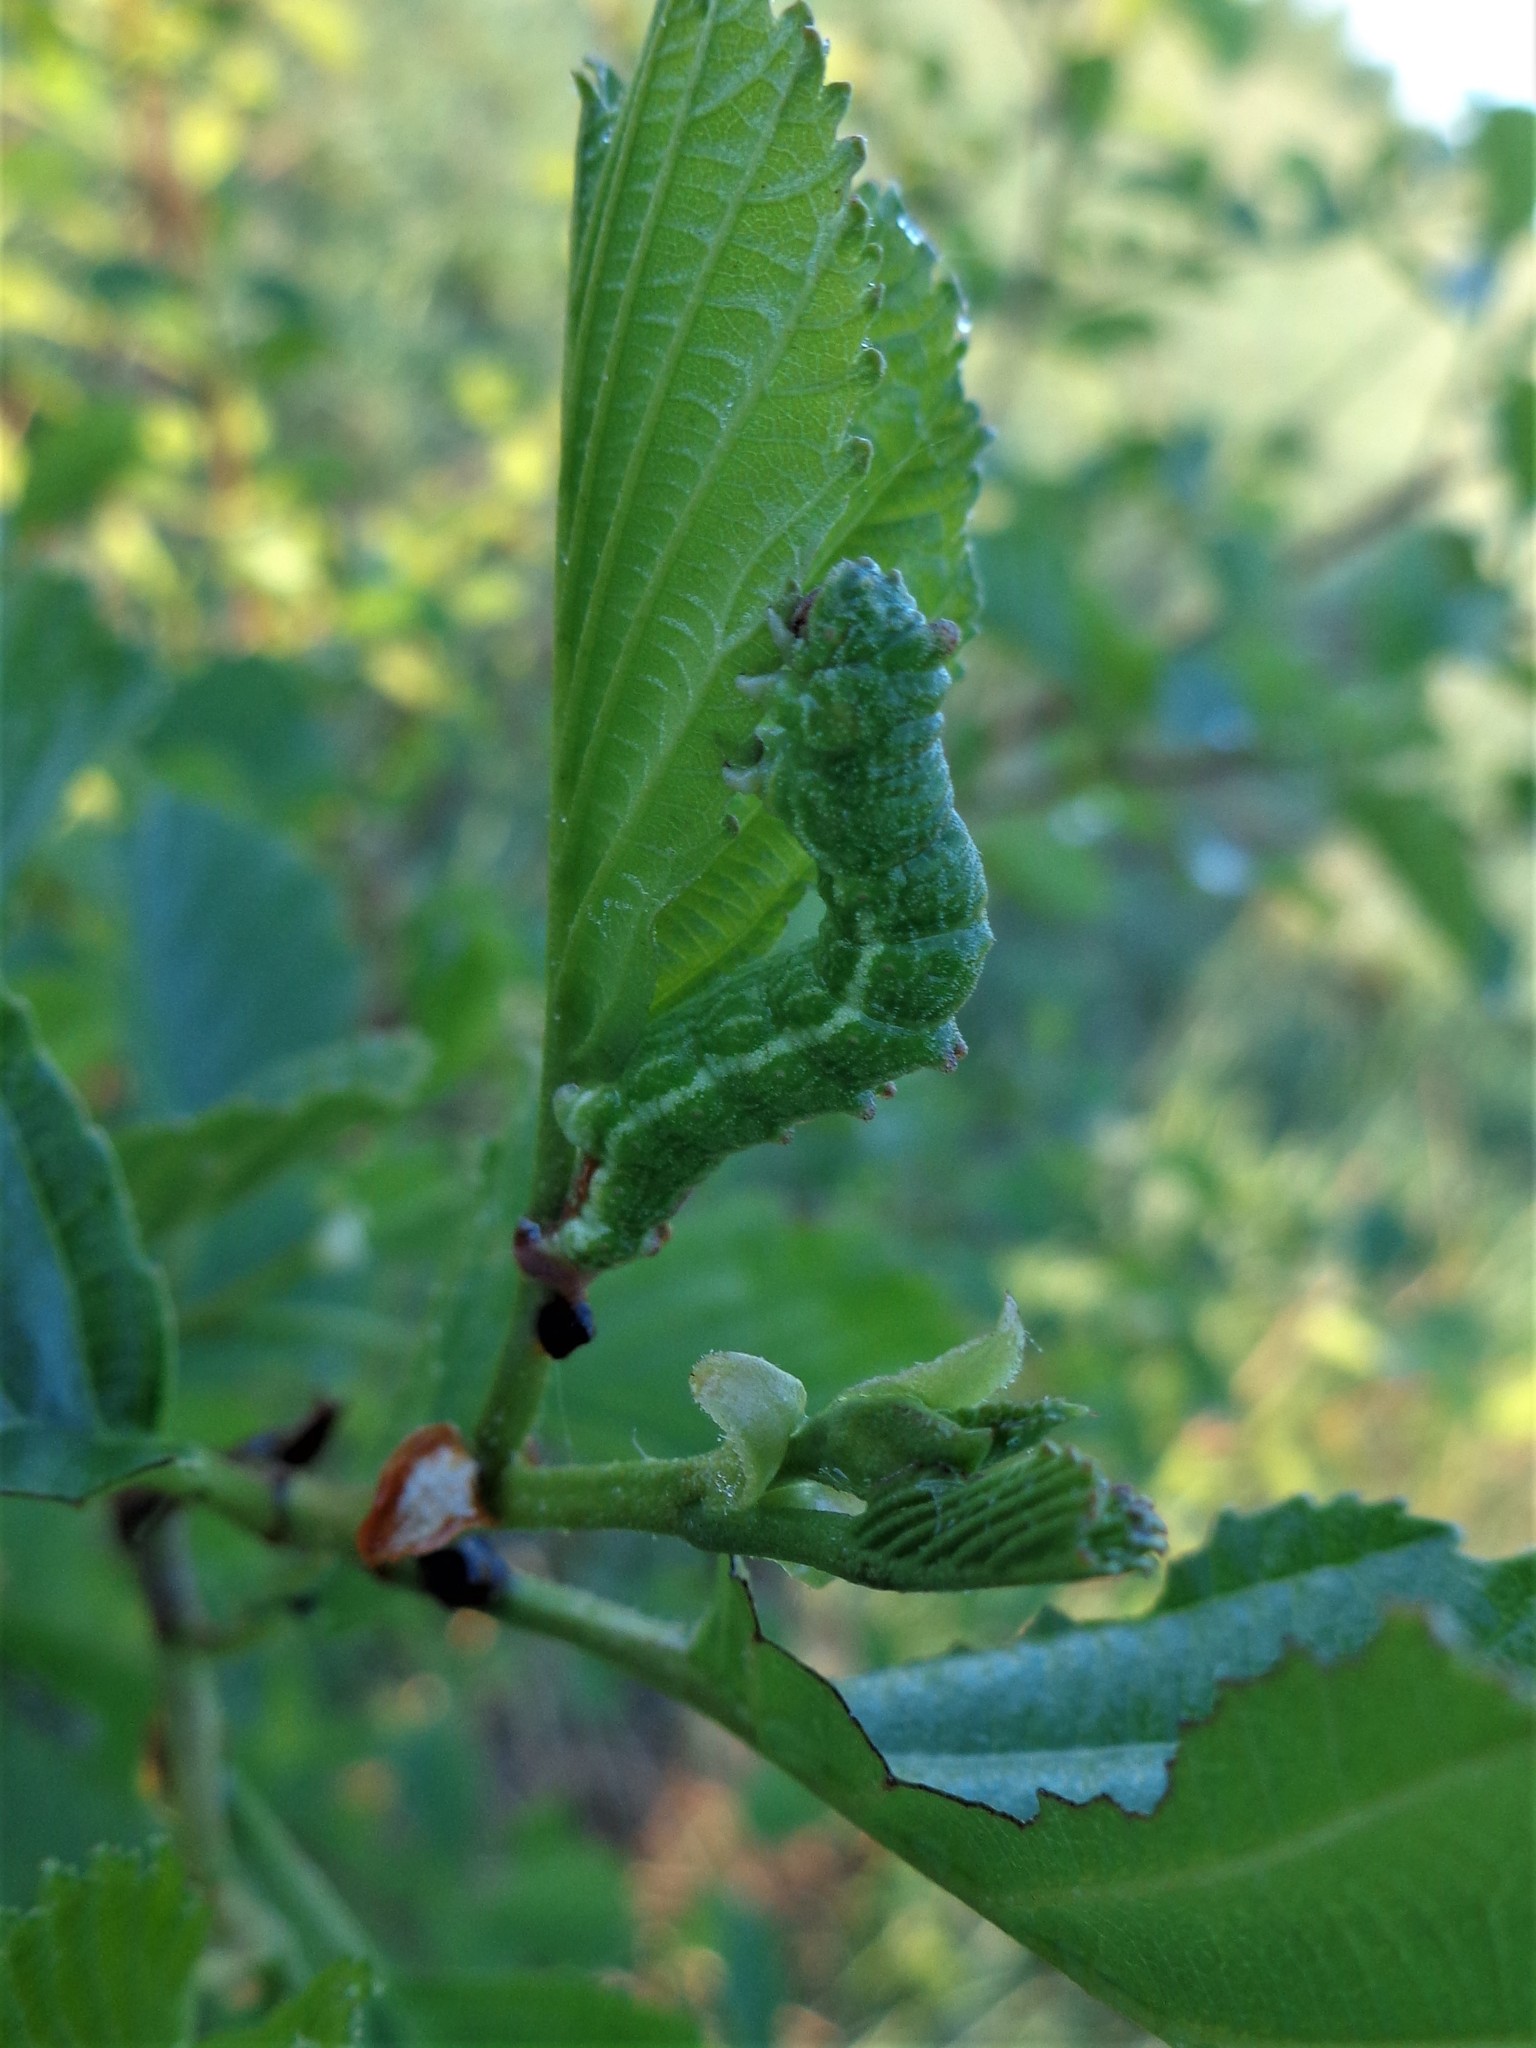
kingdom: Animalia
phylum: Arthropoda
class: Insecta
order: Lepidoptera
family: Geometridae
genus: Geometra
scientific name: Geometra papilionaria
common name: Large emerald
